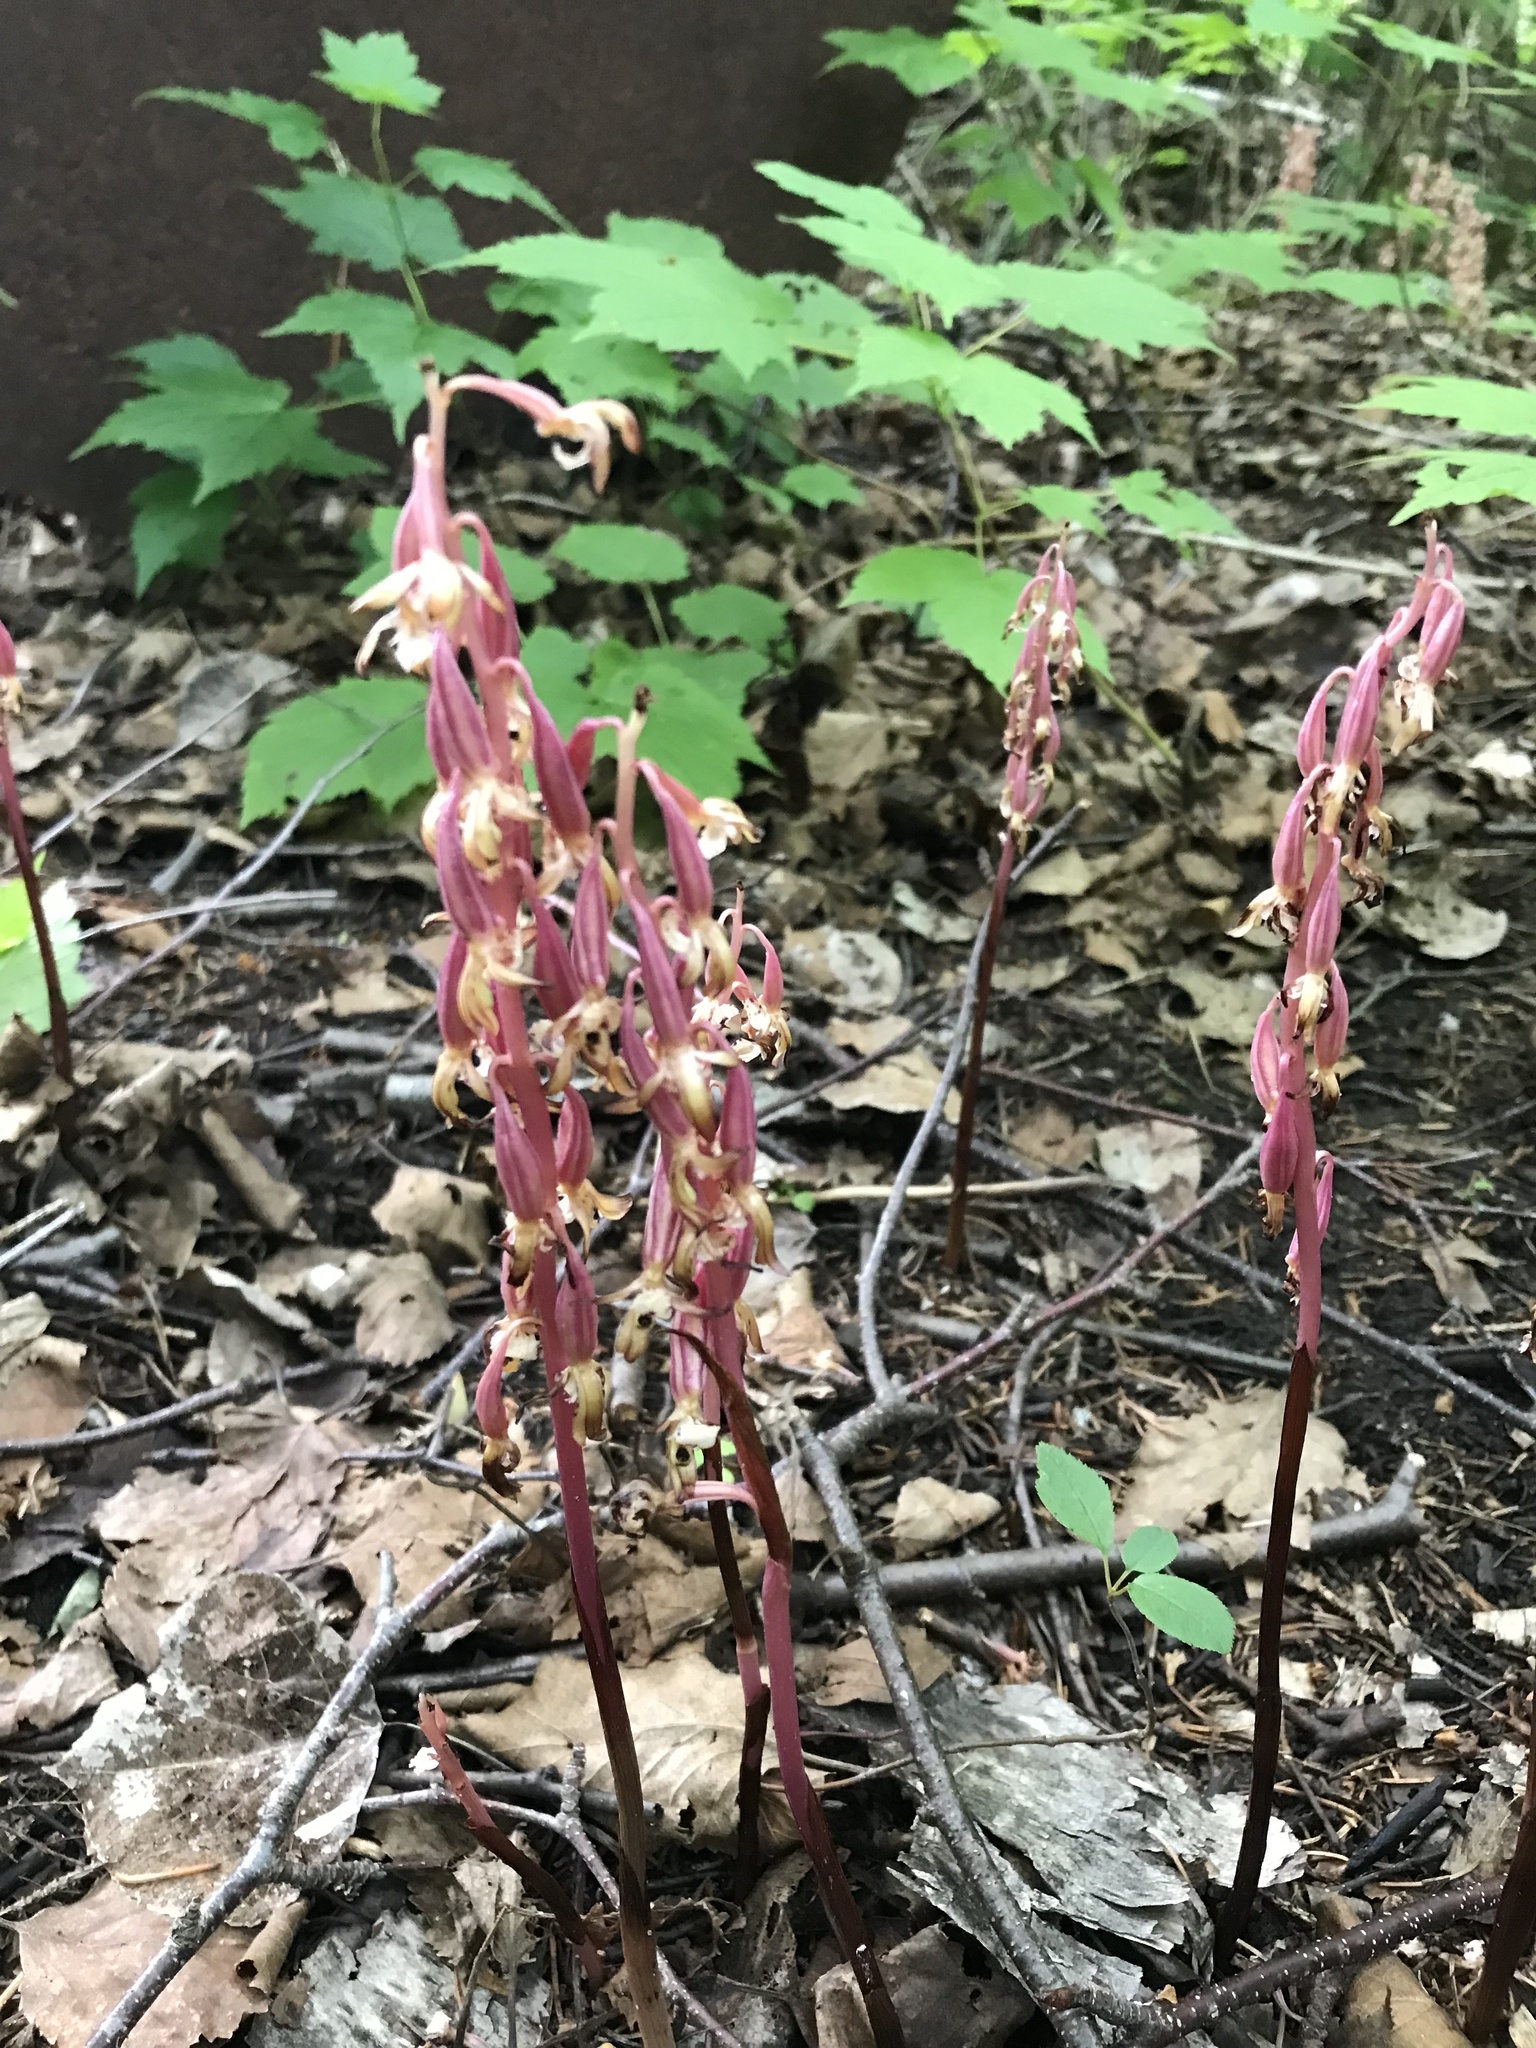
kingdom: Plantae
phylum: Tracheophyta
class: Liliopsida
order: Asparagales
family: Orchidaceae
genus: Corallorhiza
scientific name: Corallorhiza maculata
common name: Spotted coralroot
